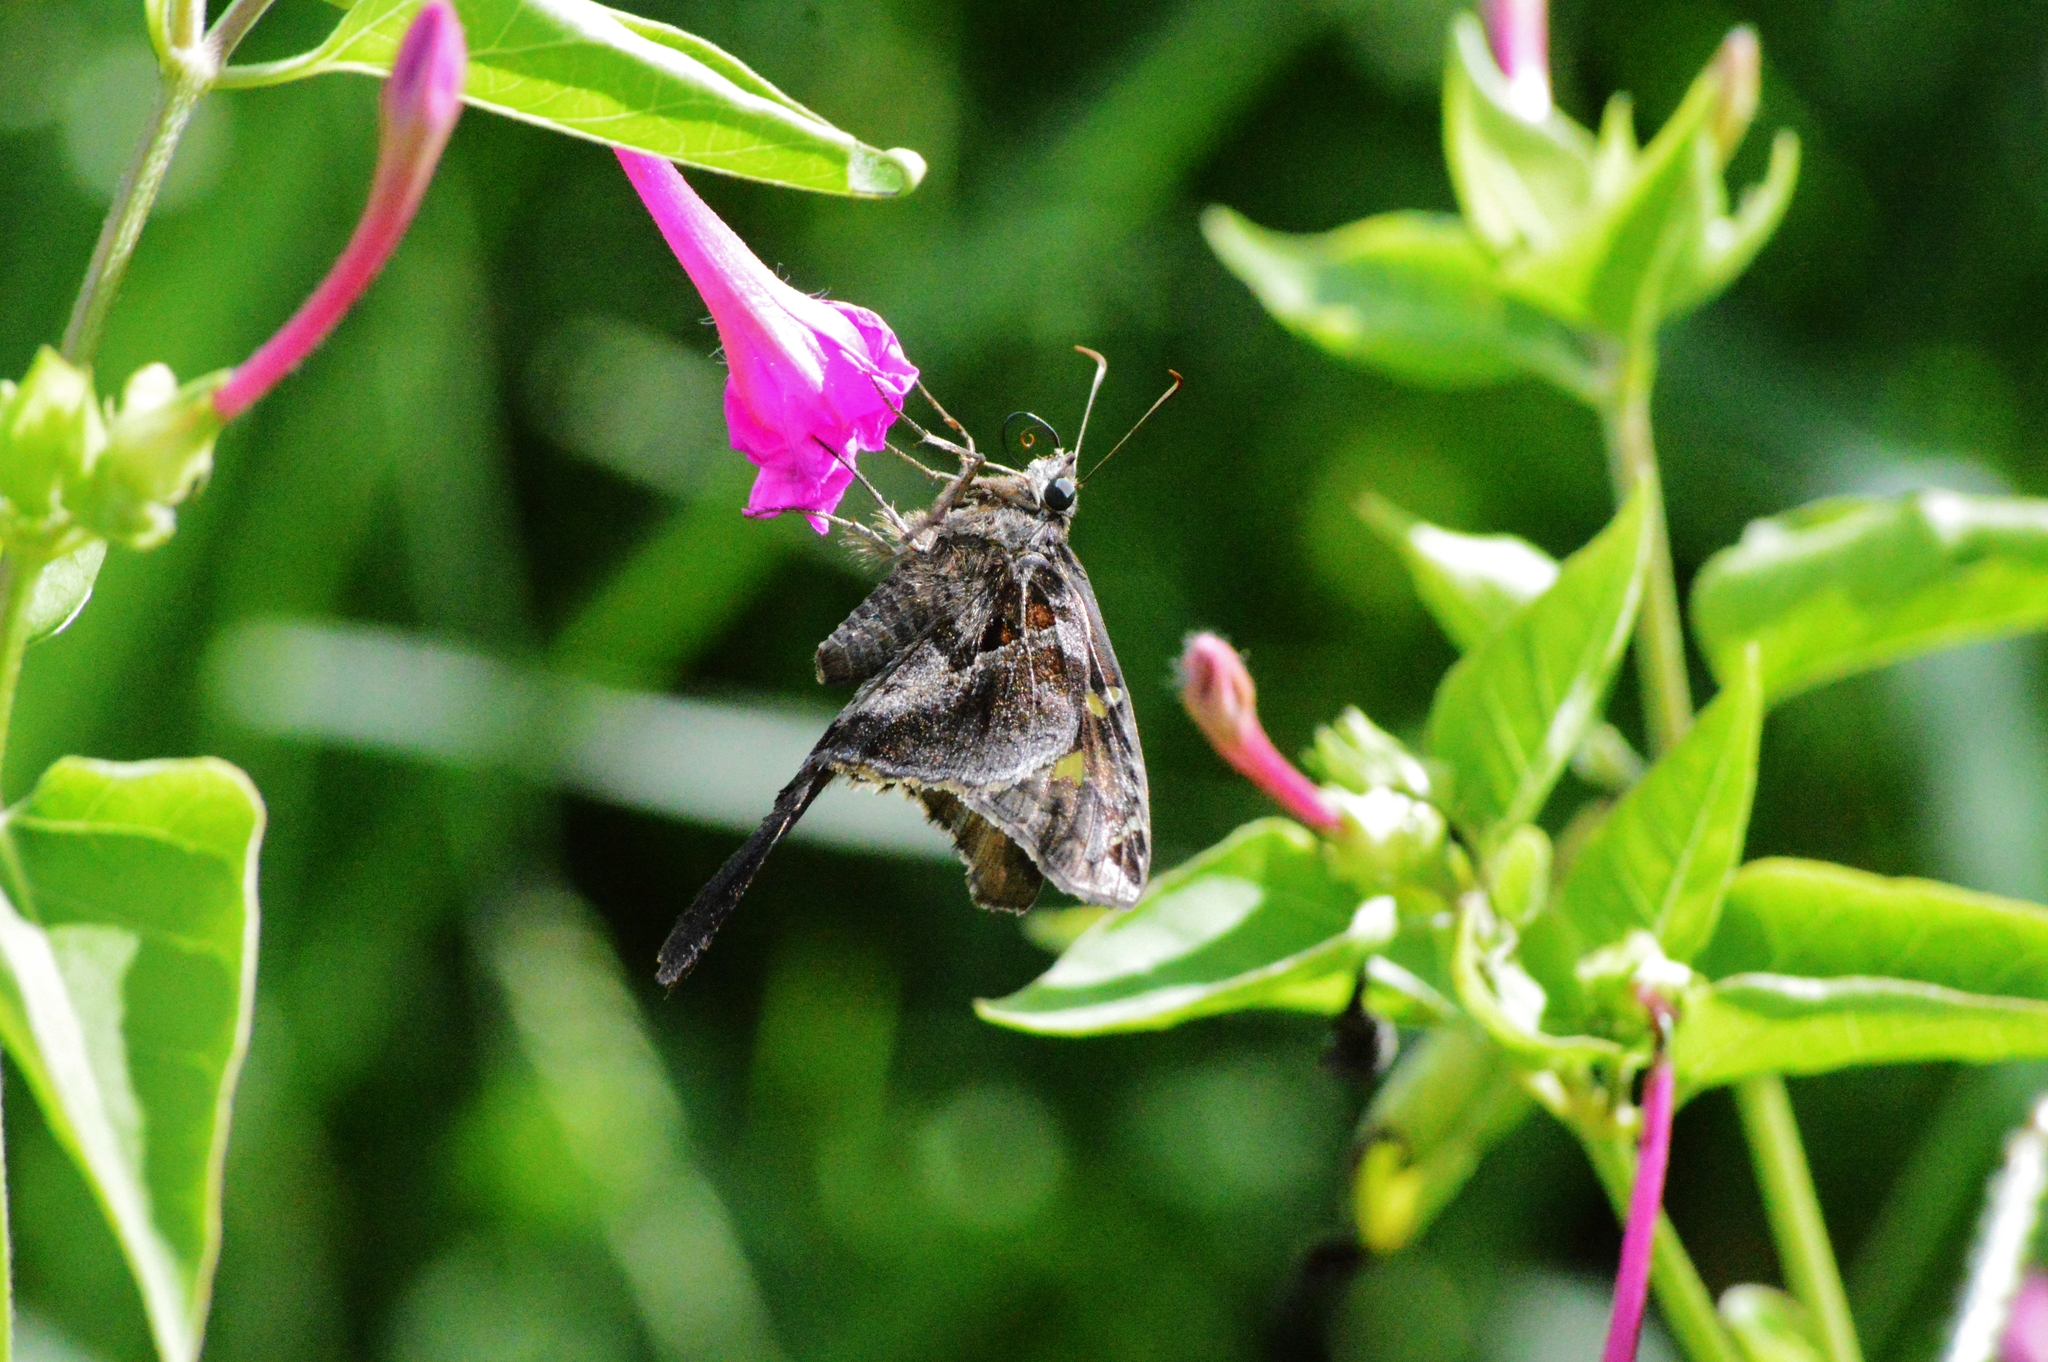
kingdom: Animalia
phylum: Arthropoda
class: Insecta
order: Lepidoptera
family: Hesperiidae
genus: Chioides
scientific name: Chioides catillus
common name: Silverbanded skipper
